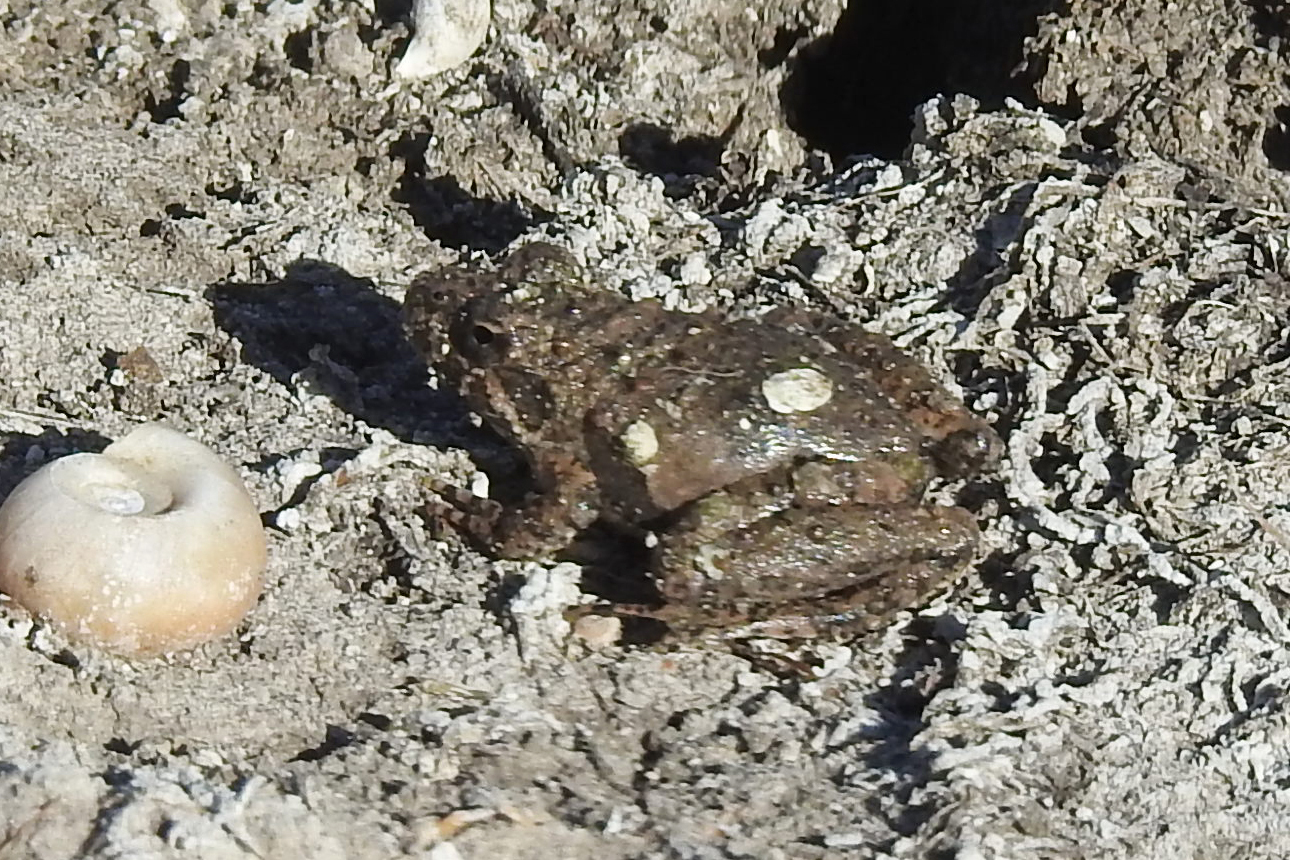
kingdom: Animalia
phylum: Chordata
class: Amphibia
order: Anura
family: Hylidae
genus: Acris
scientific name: Acris blanchardi
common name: Blanchard's cricket frog
